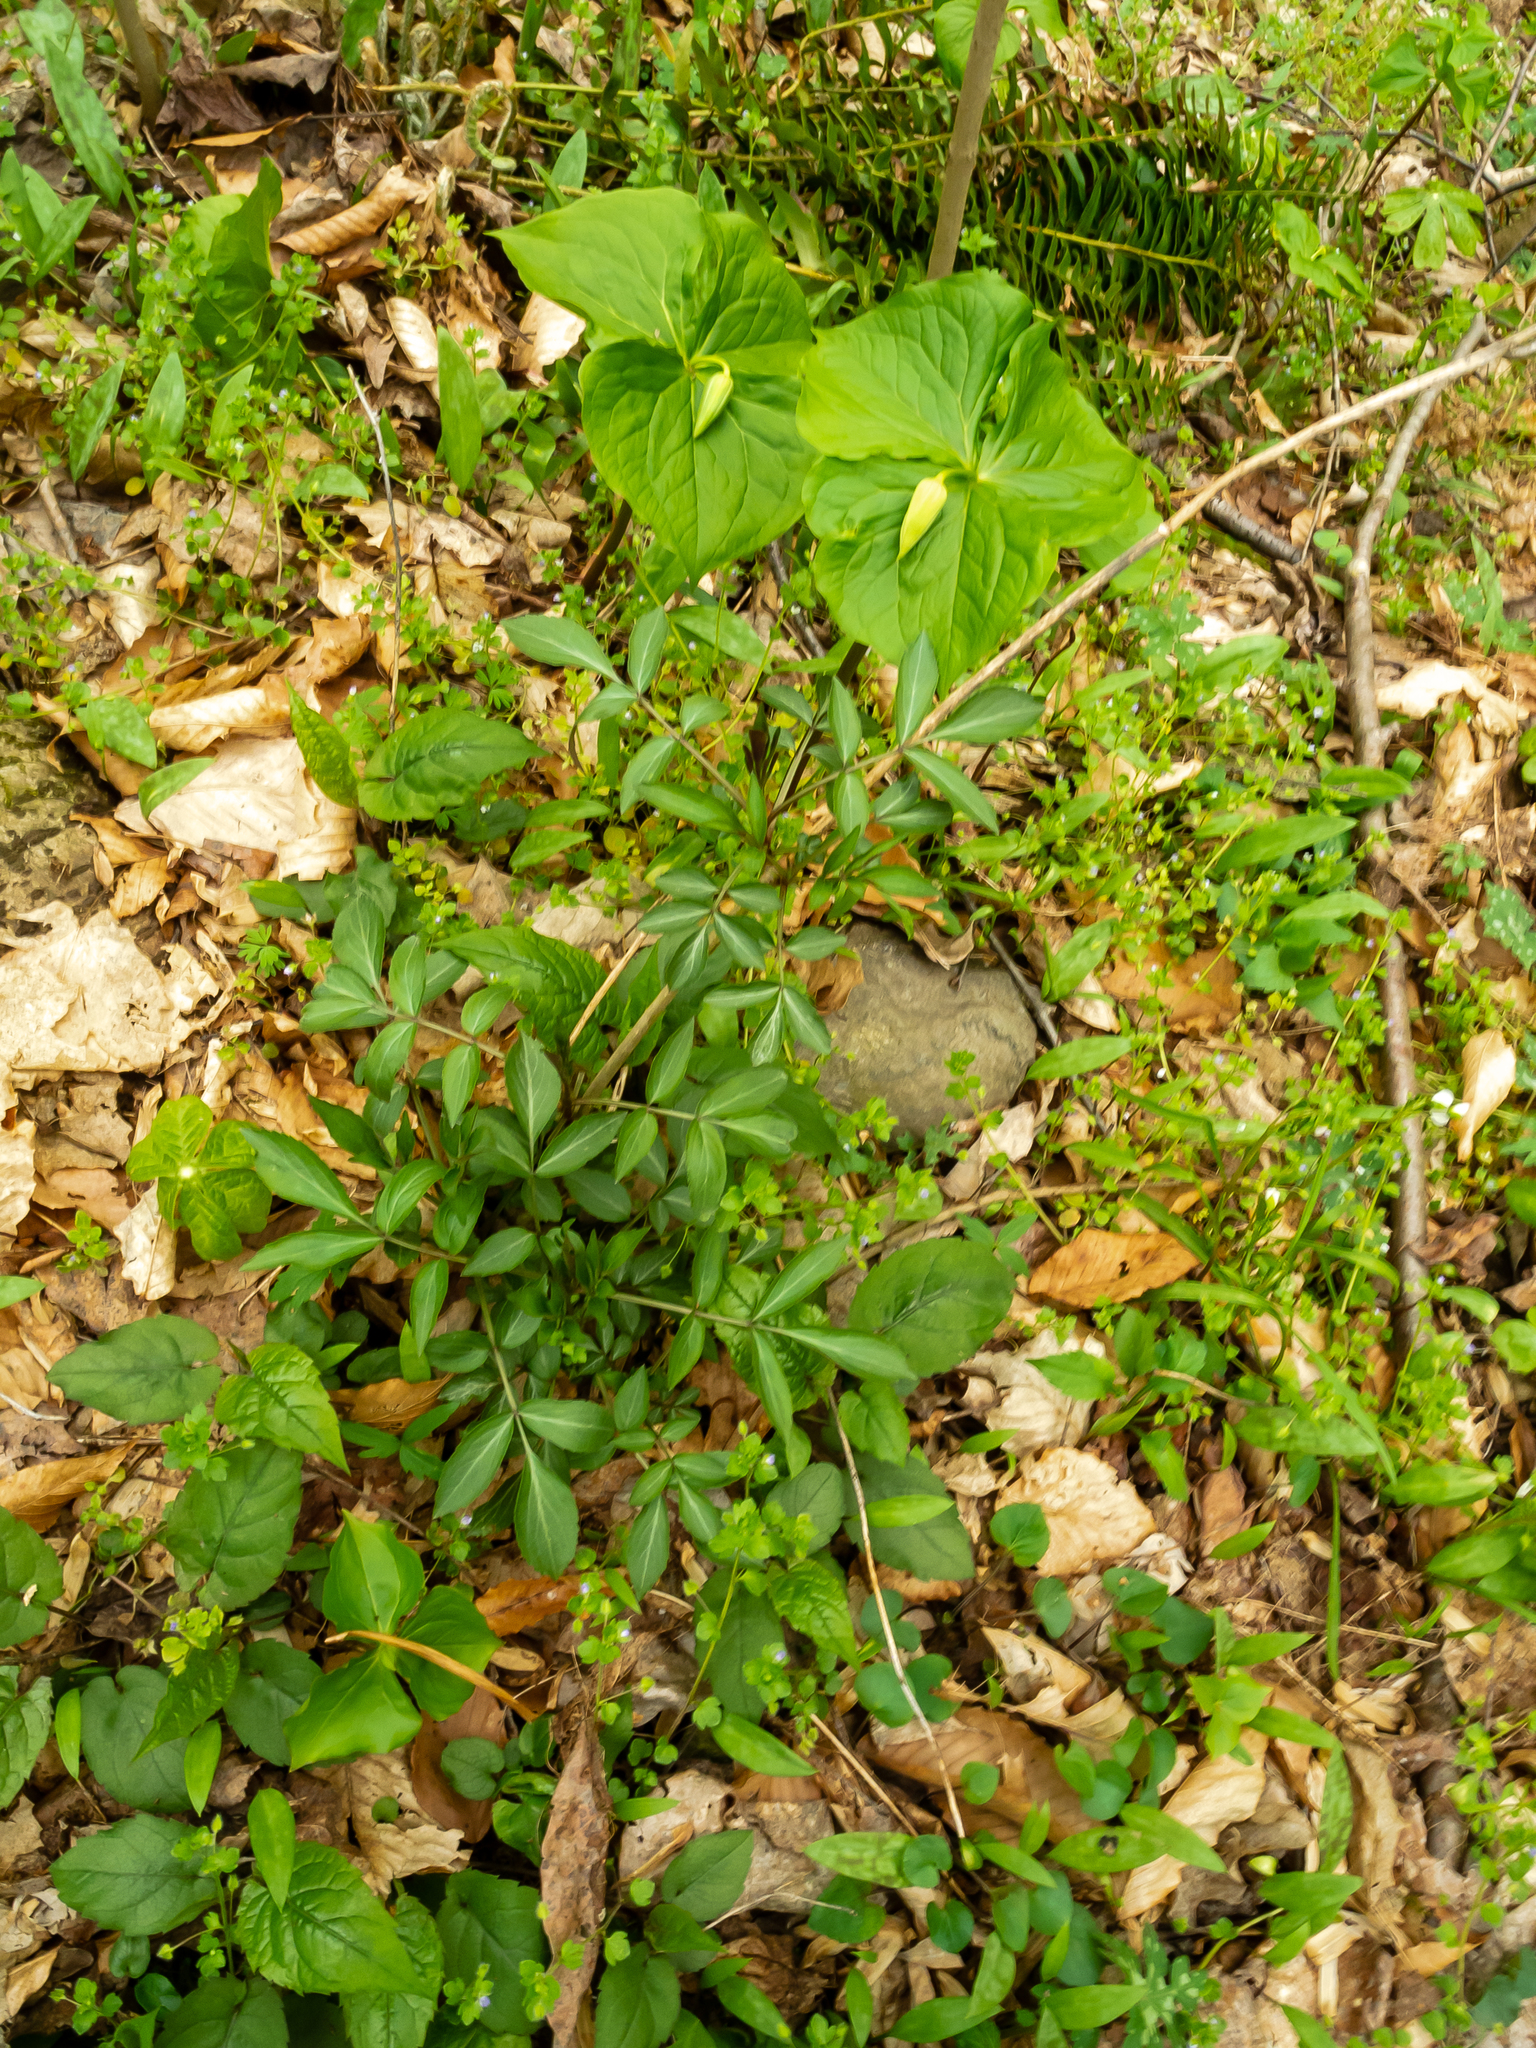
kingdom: Plantae
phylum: Tracheophyta
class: Liliopsida
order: Liliales
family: Melanthiaceae
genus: Trillium
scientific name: Trillium flexipes
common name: Drooping trillium
